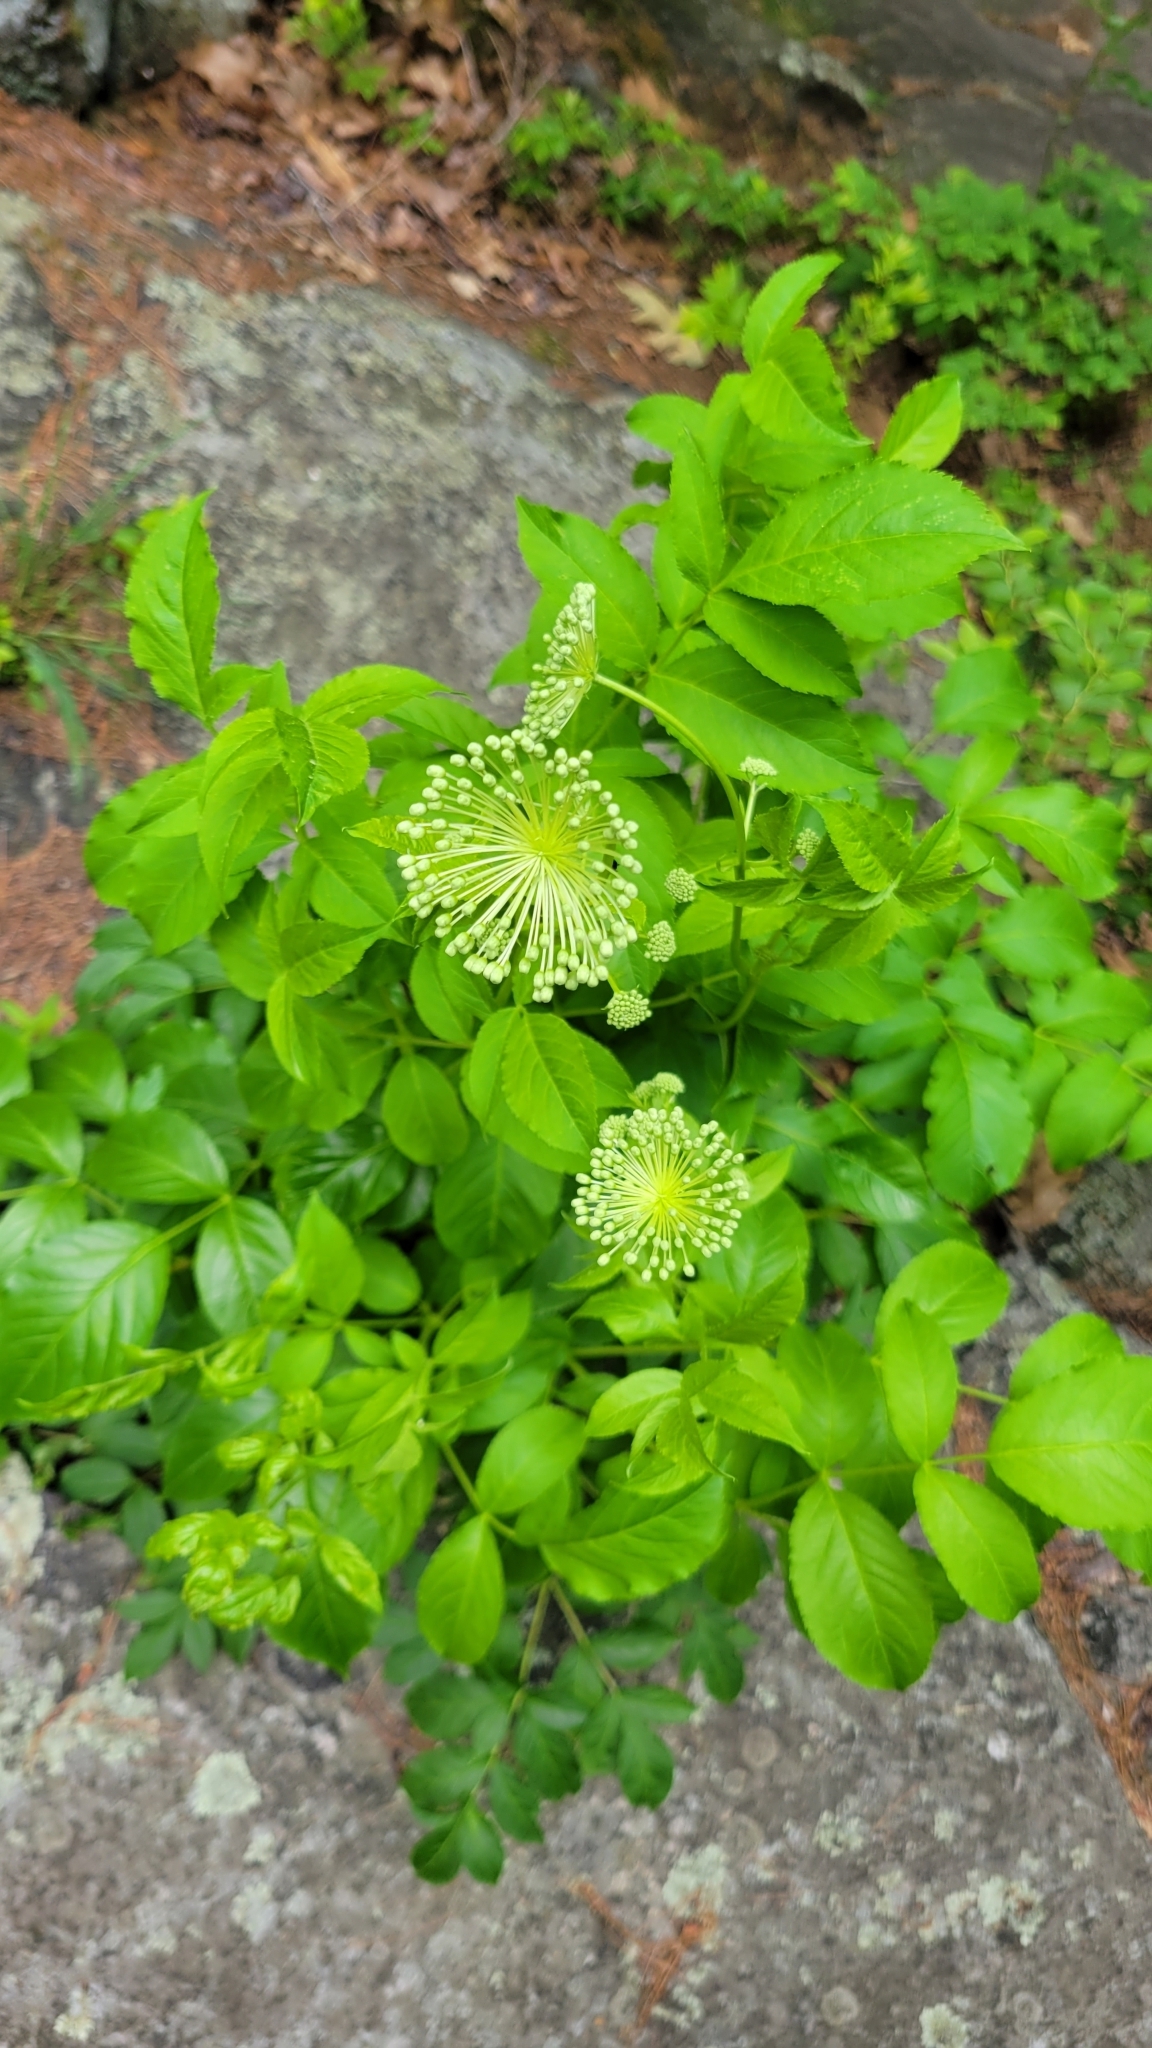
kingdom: Plantae
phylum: Tracheophyta
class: Magnoliopsida
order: Apiales
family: Araliaceae
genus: Aralia
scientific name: Aralia hispida
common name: Bristly sarsaparilla
